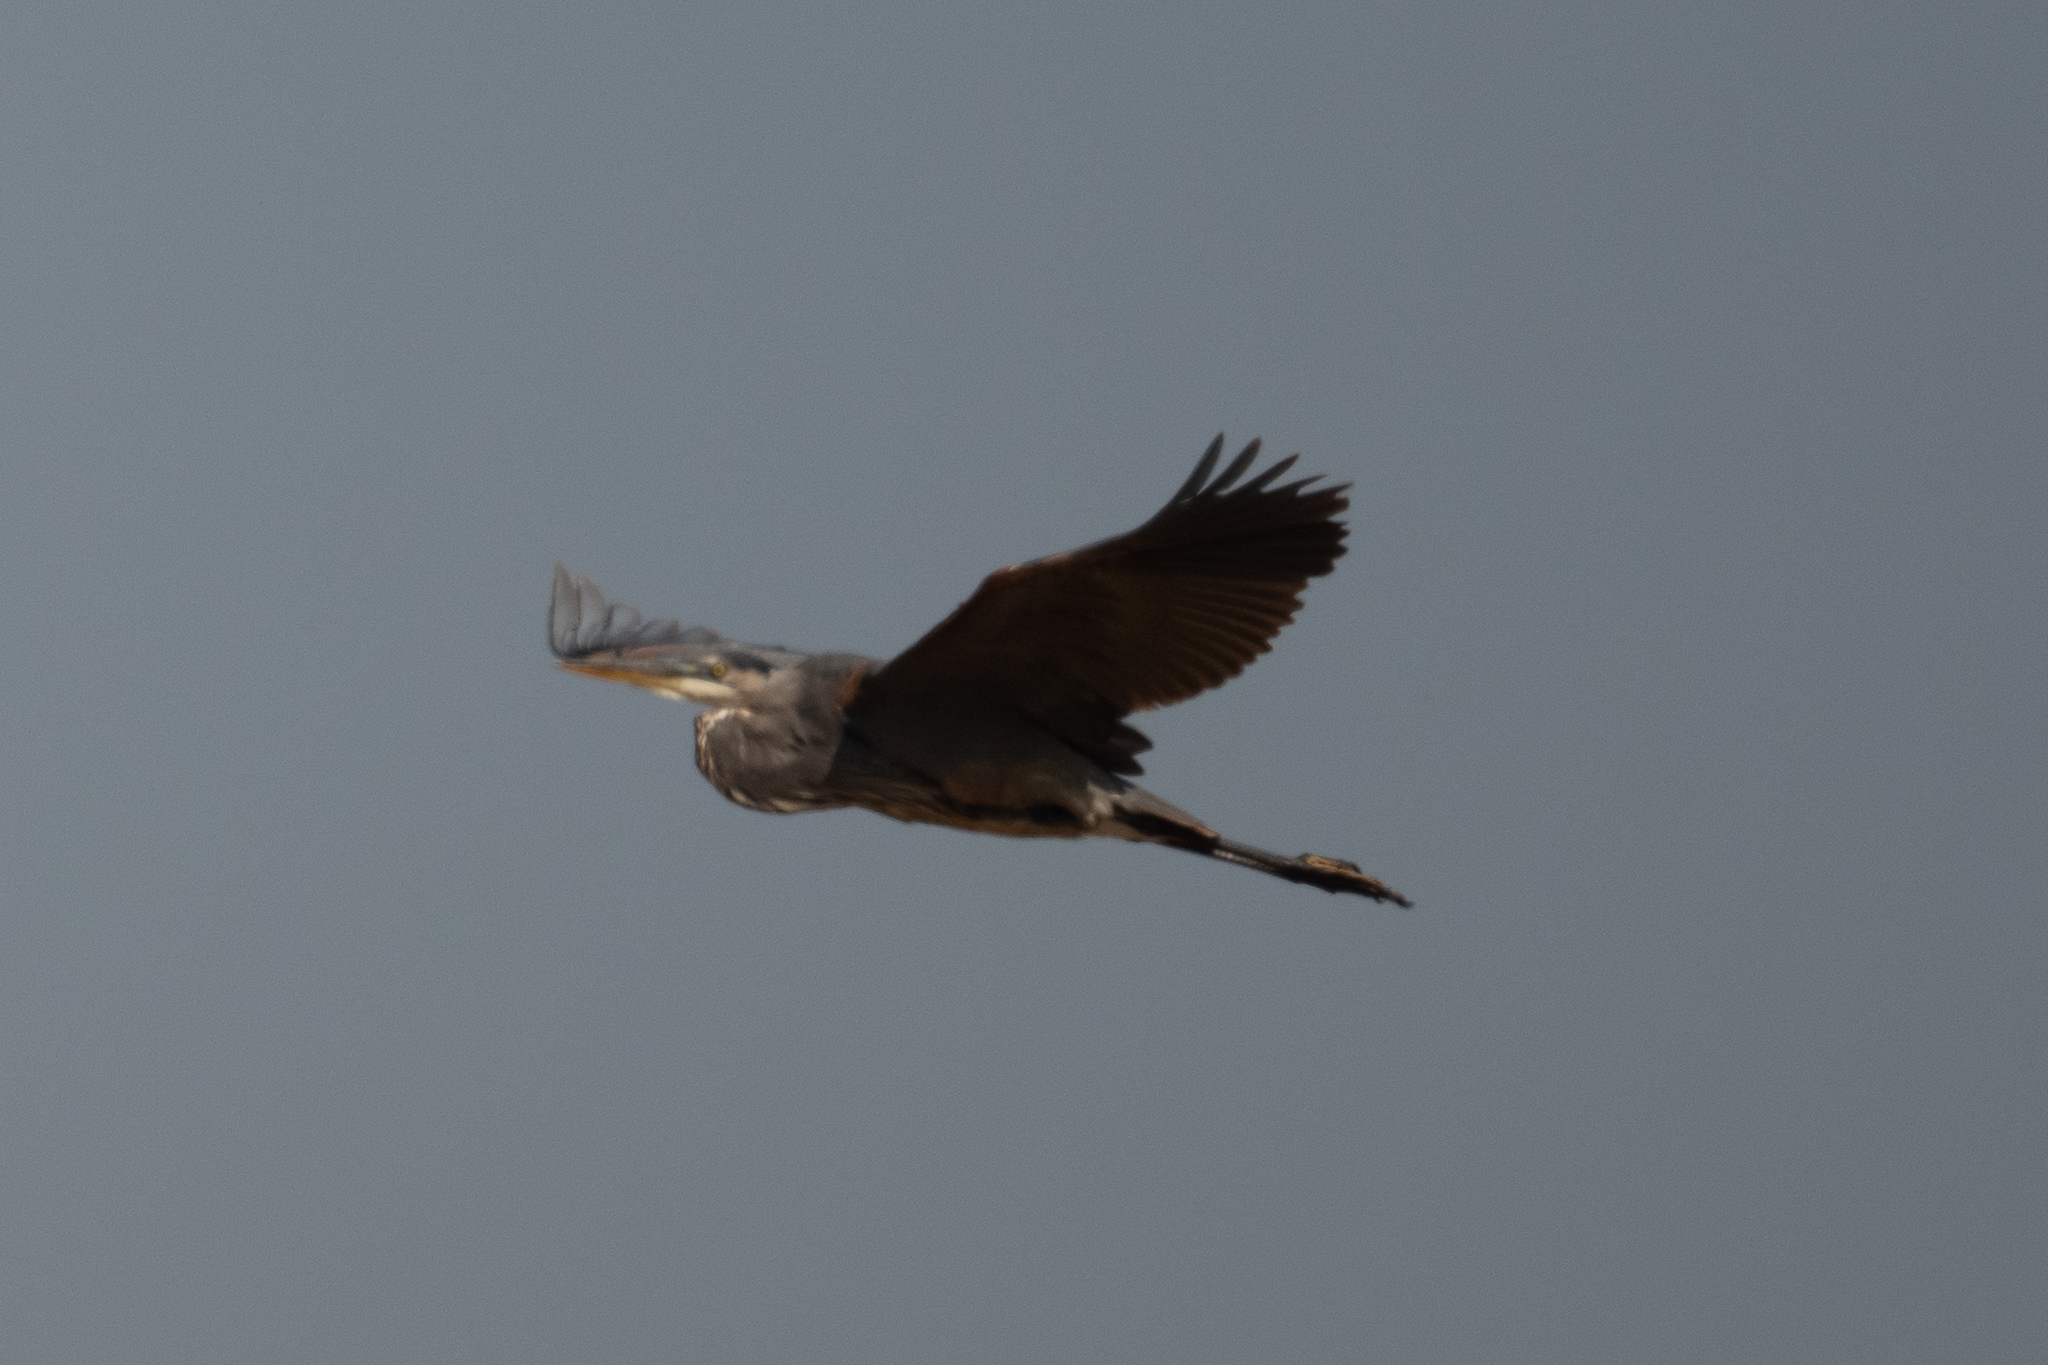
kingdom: Animalia
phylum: Chordata
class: Aves
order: Pelecaniformes
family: Ardeidae
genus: Ardea
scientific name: Ardea herodias
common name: Great blue heron
